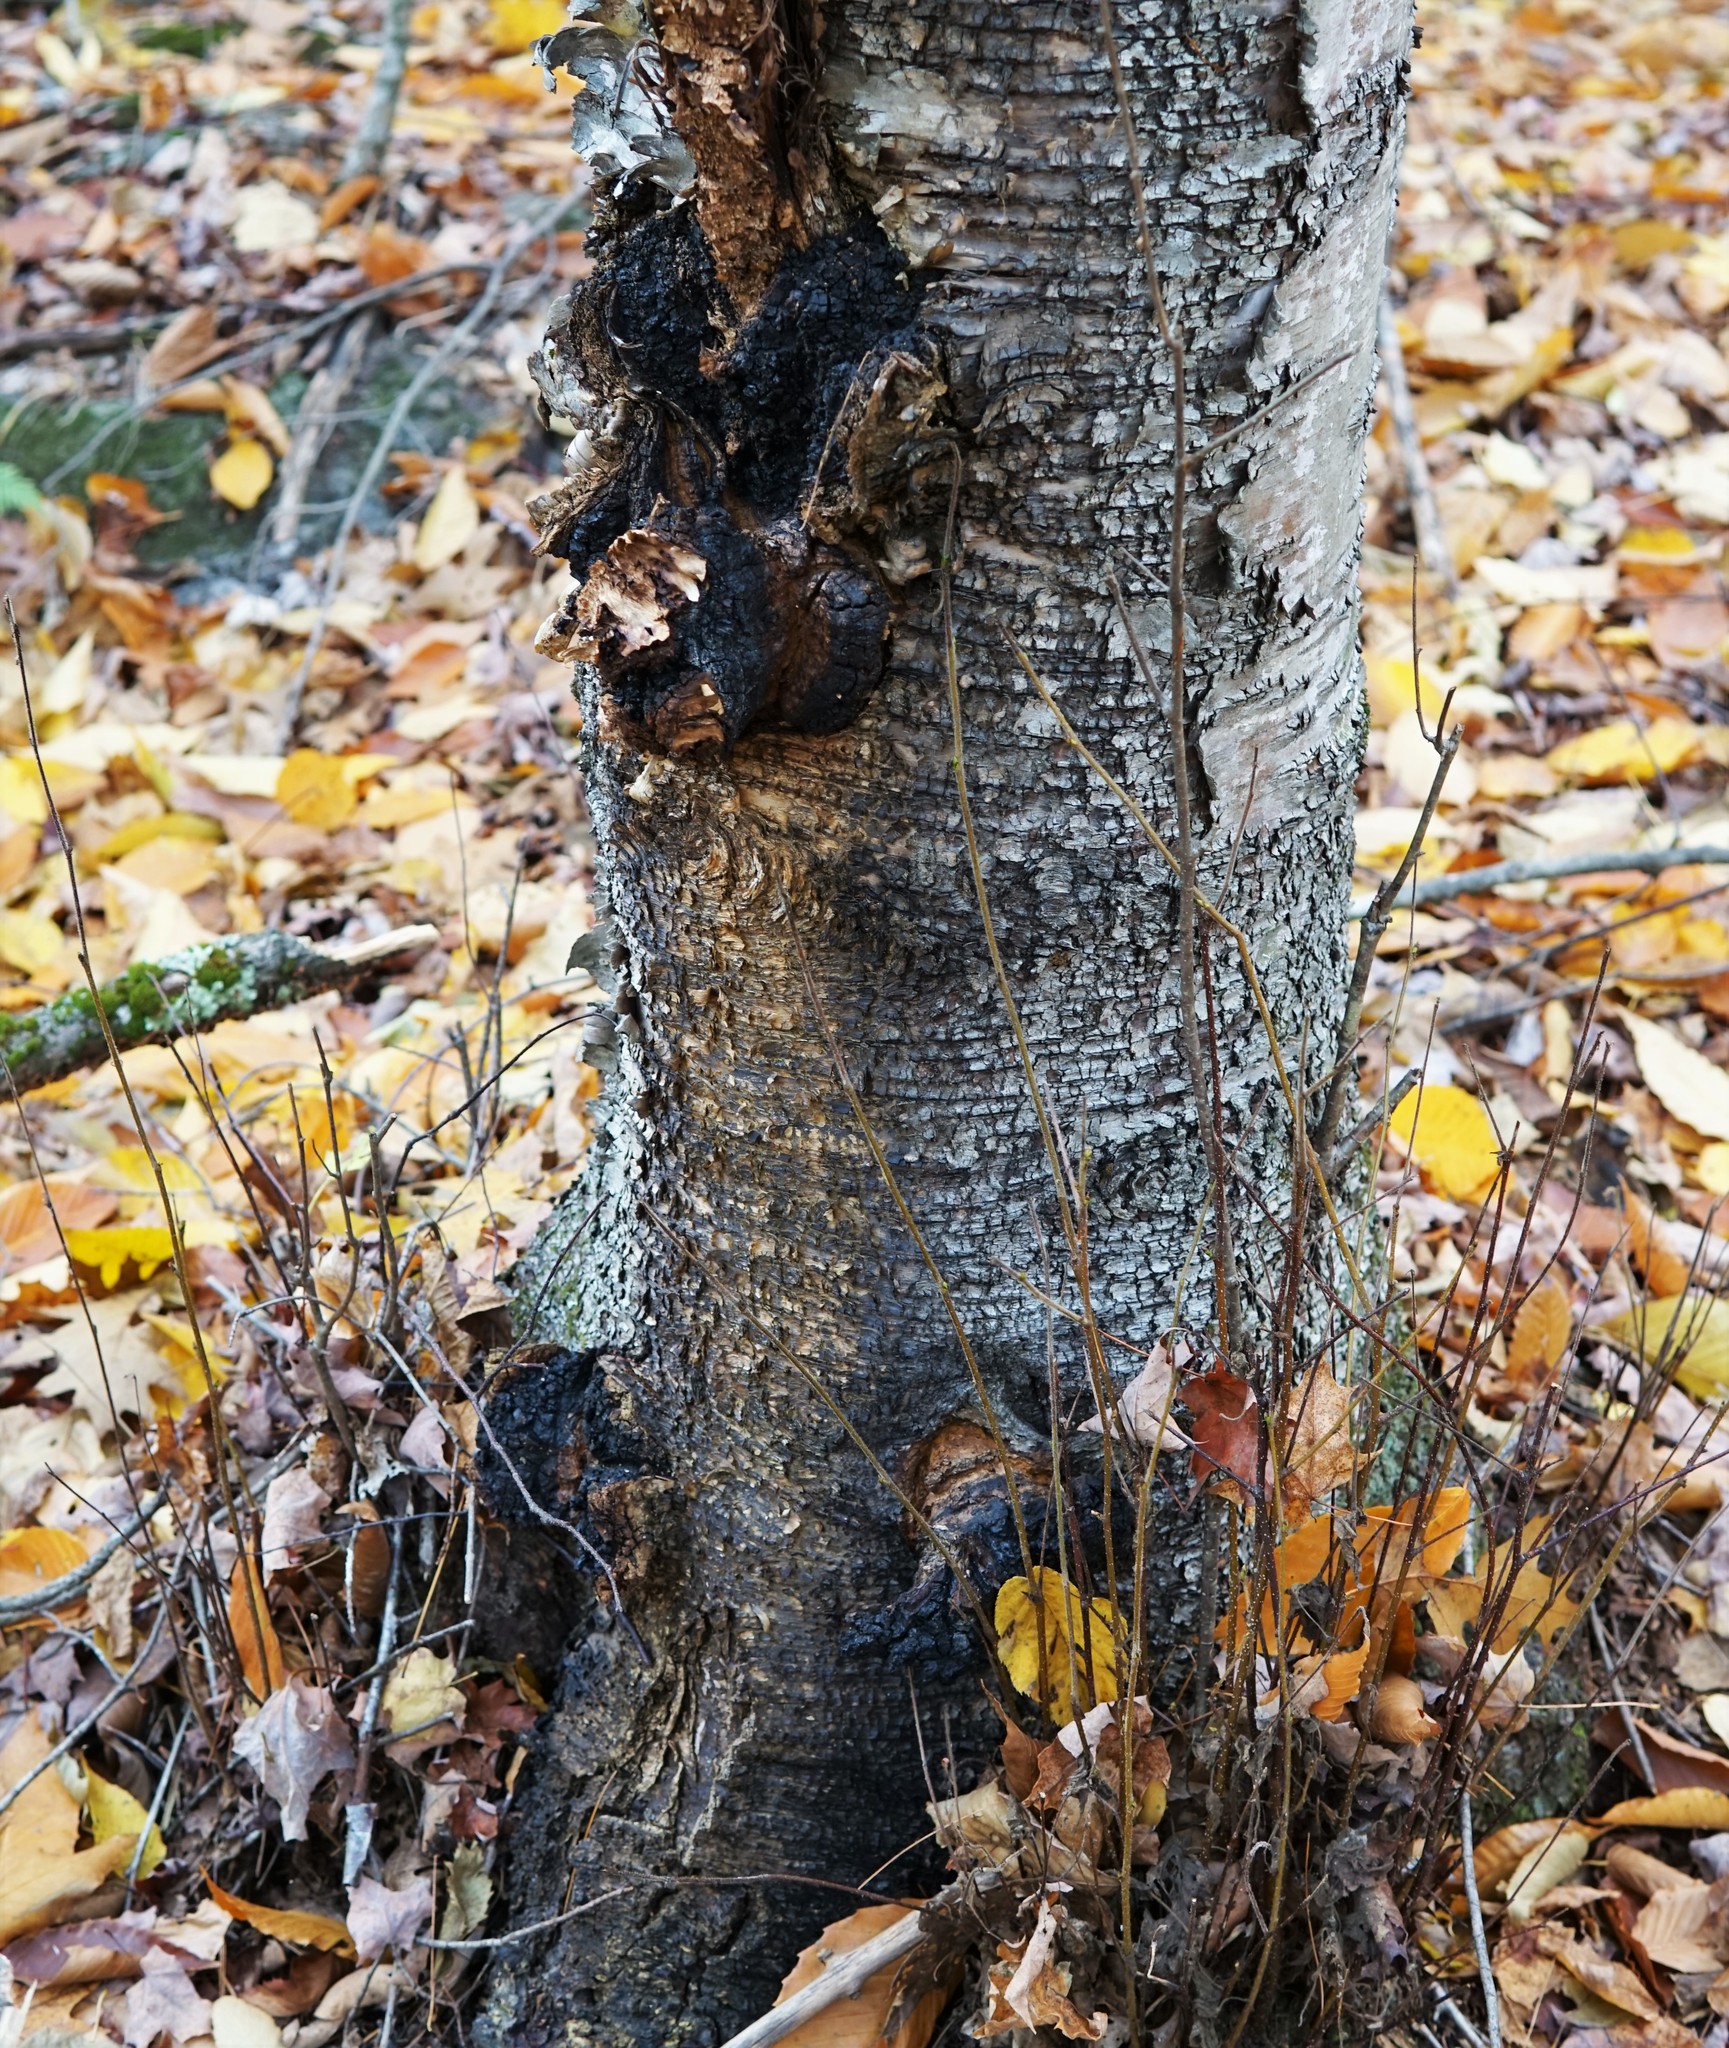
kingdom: Fungi
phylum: Basidiomycota
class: Agaricomycetes
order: Hymenochaetales
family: Hymenochaetaceae
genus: Inonotus
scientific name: Inonotus obliquus
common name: Chaga
